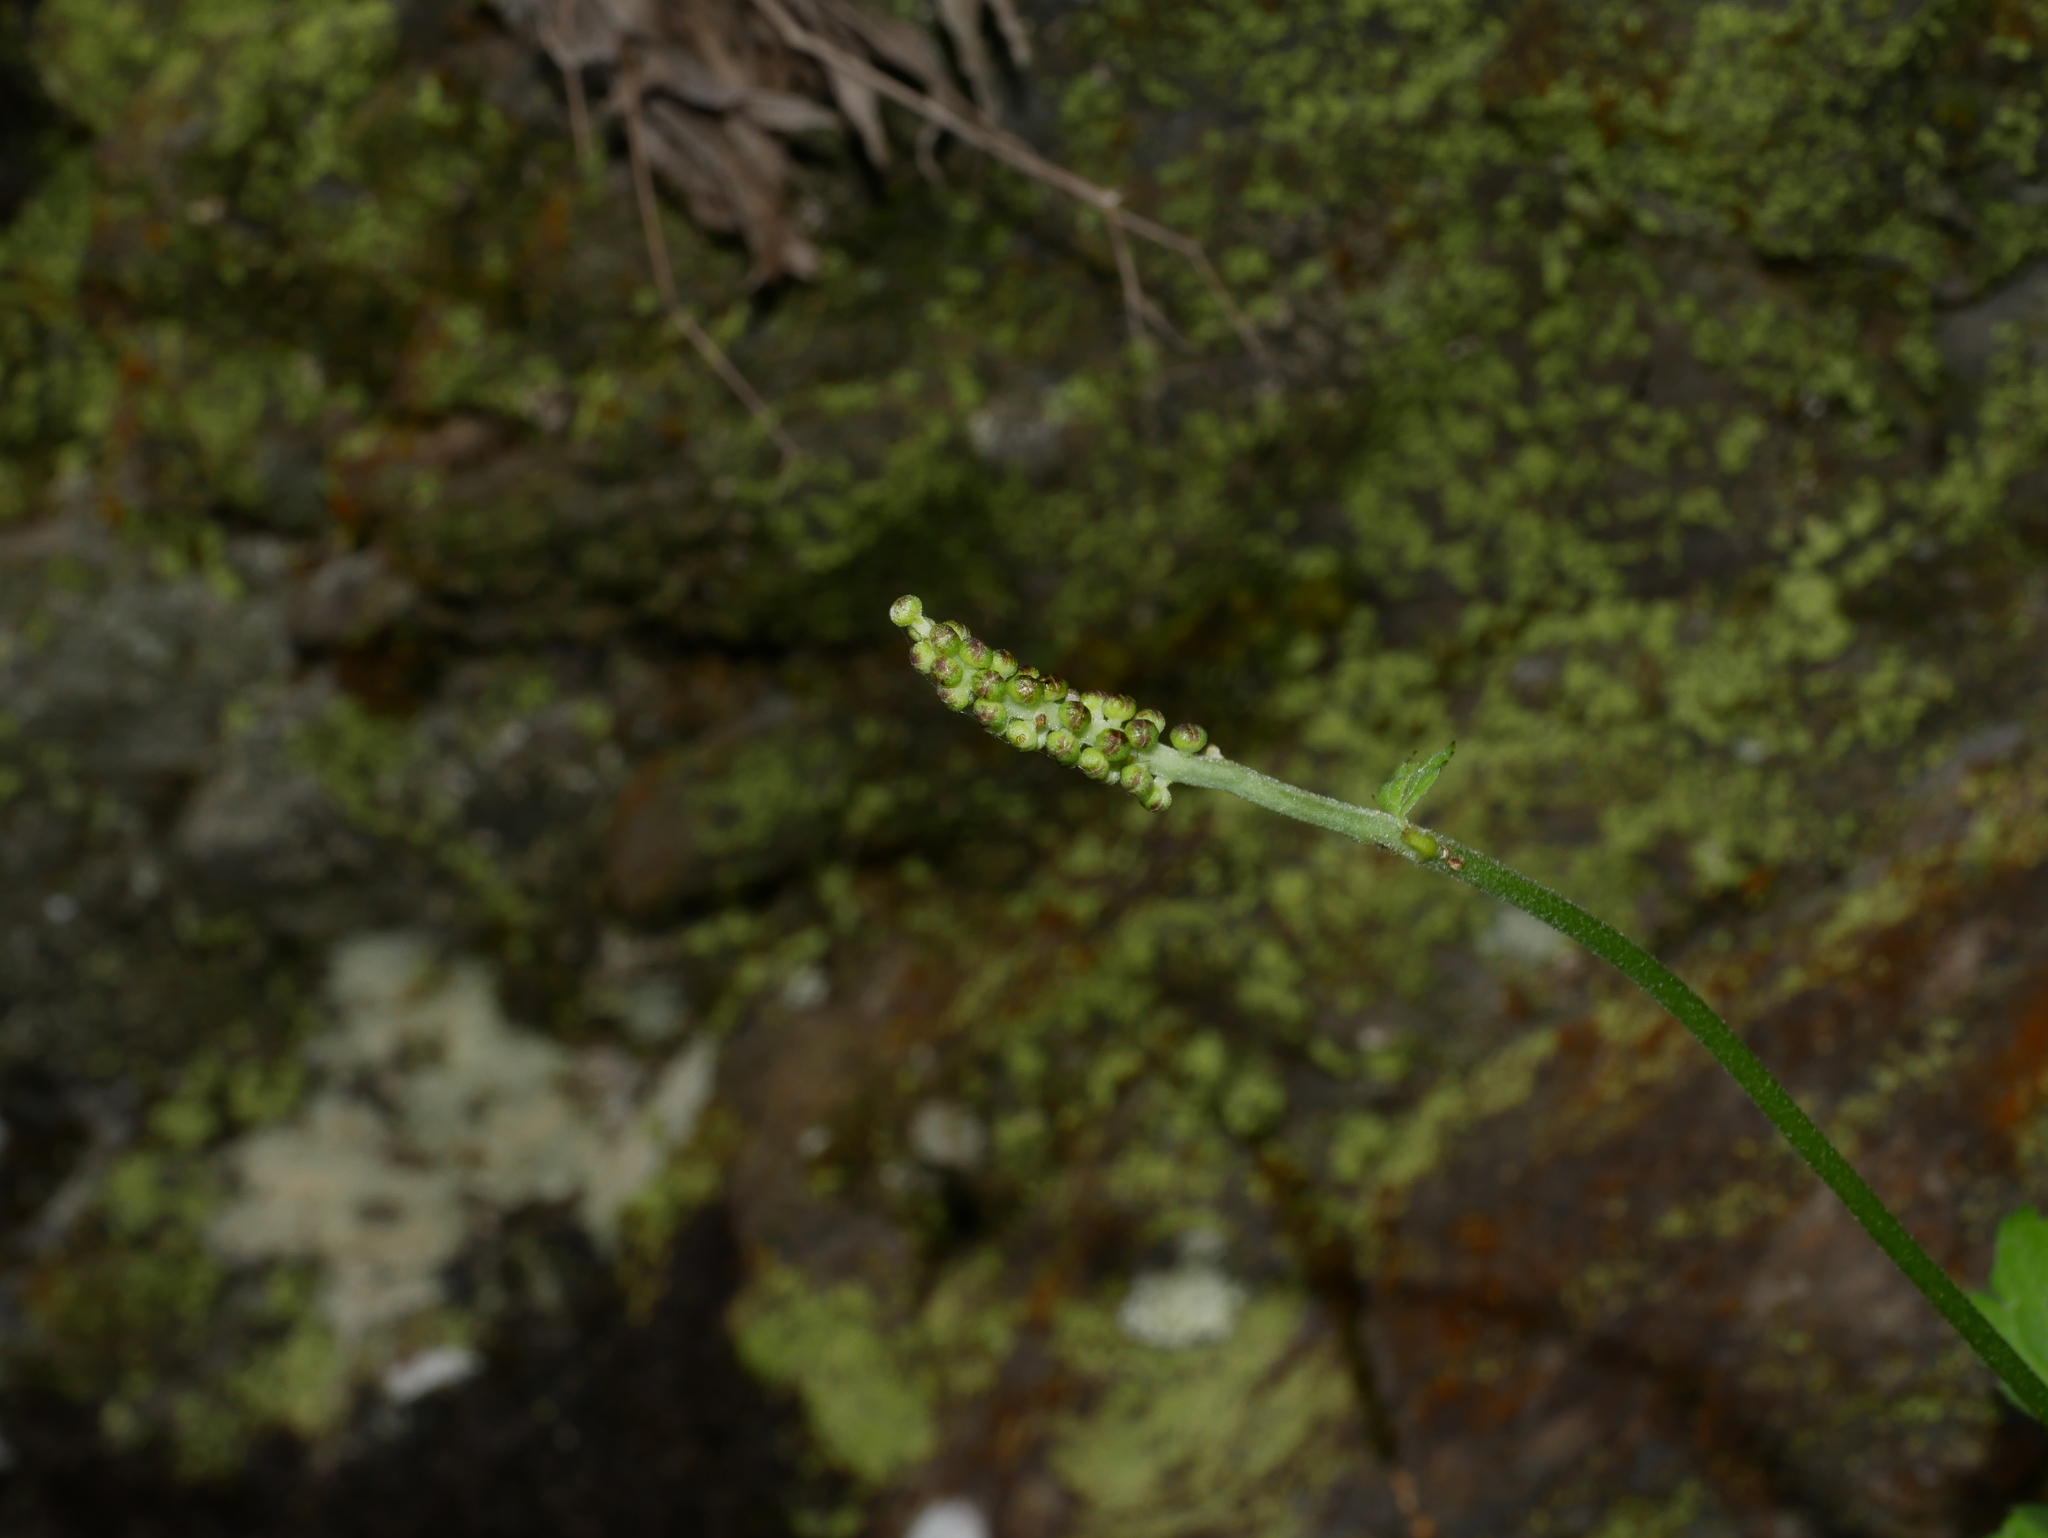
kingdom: Plantae
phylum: Tracheophyta
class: Magnoliopsida
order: Ranunculales
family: Ranunculaceae
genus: Actaea
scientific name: Actaea simplex
